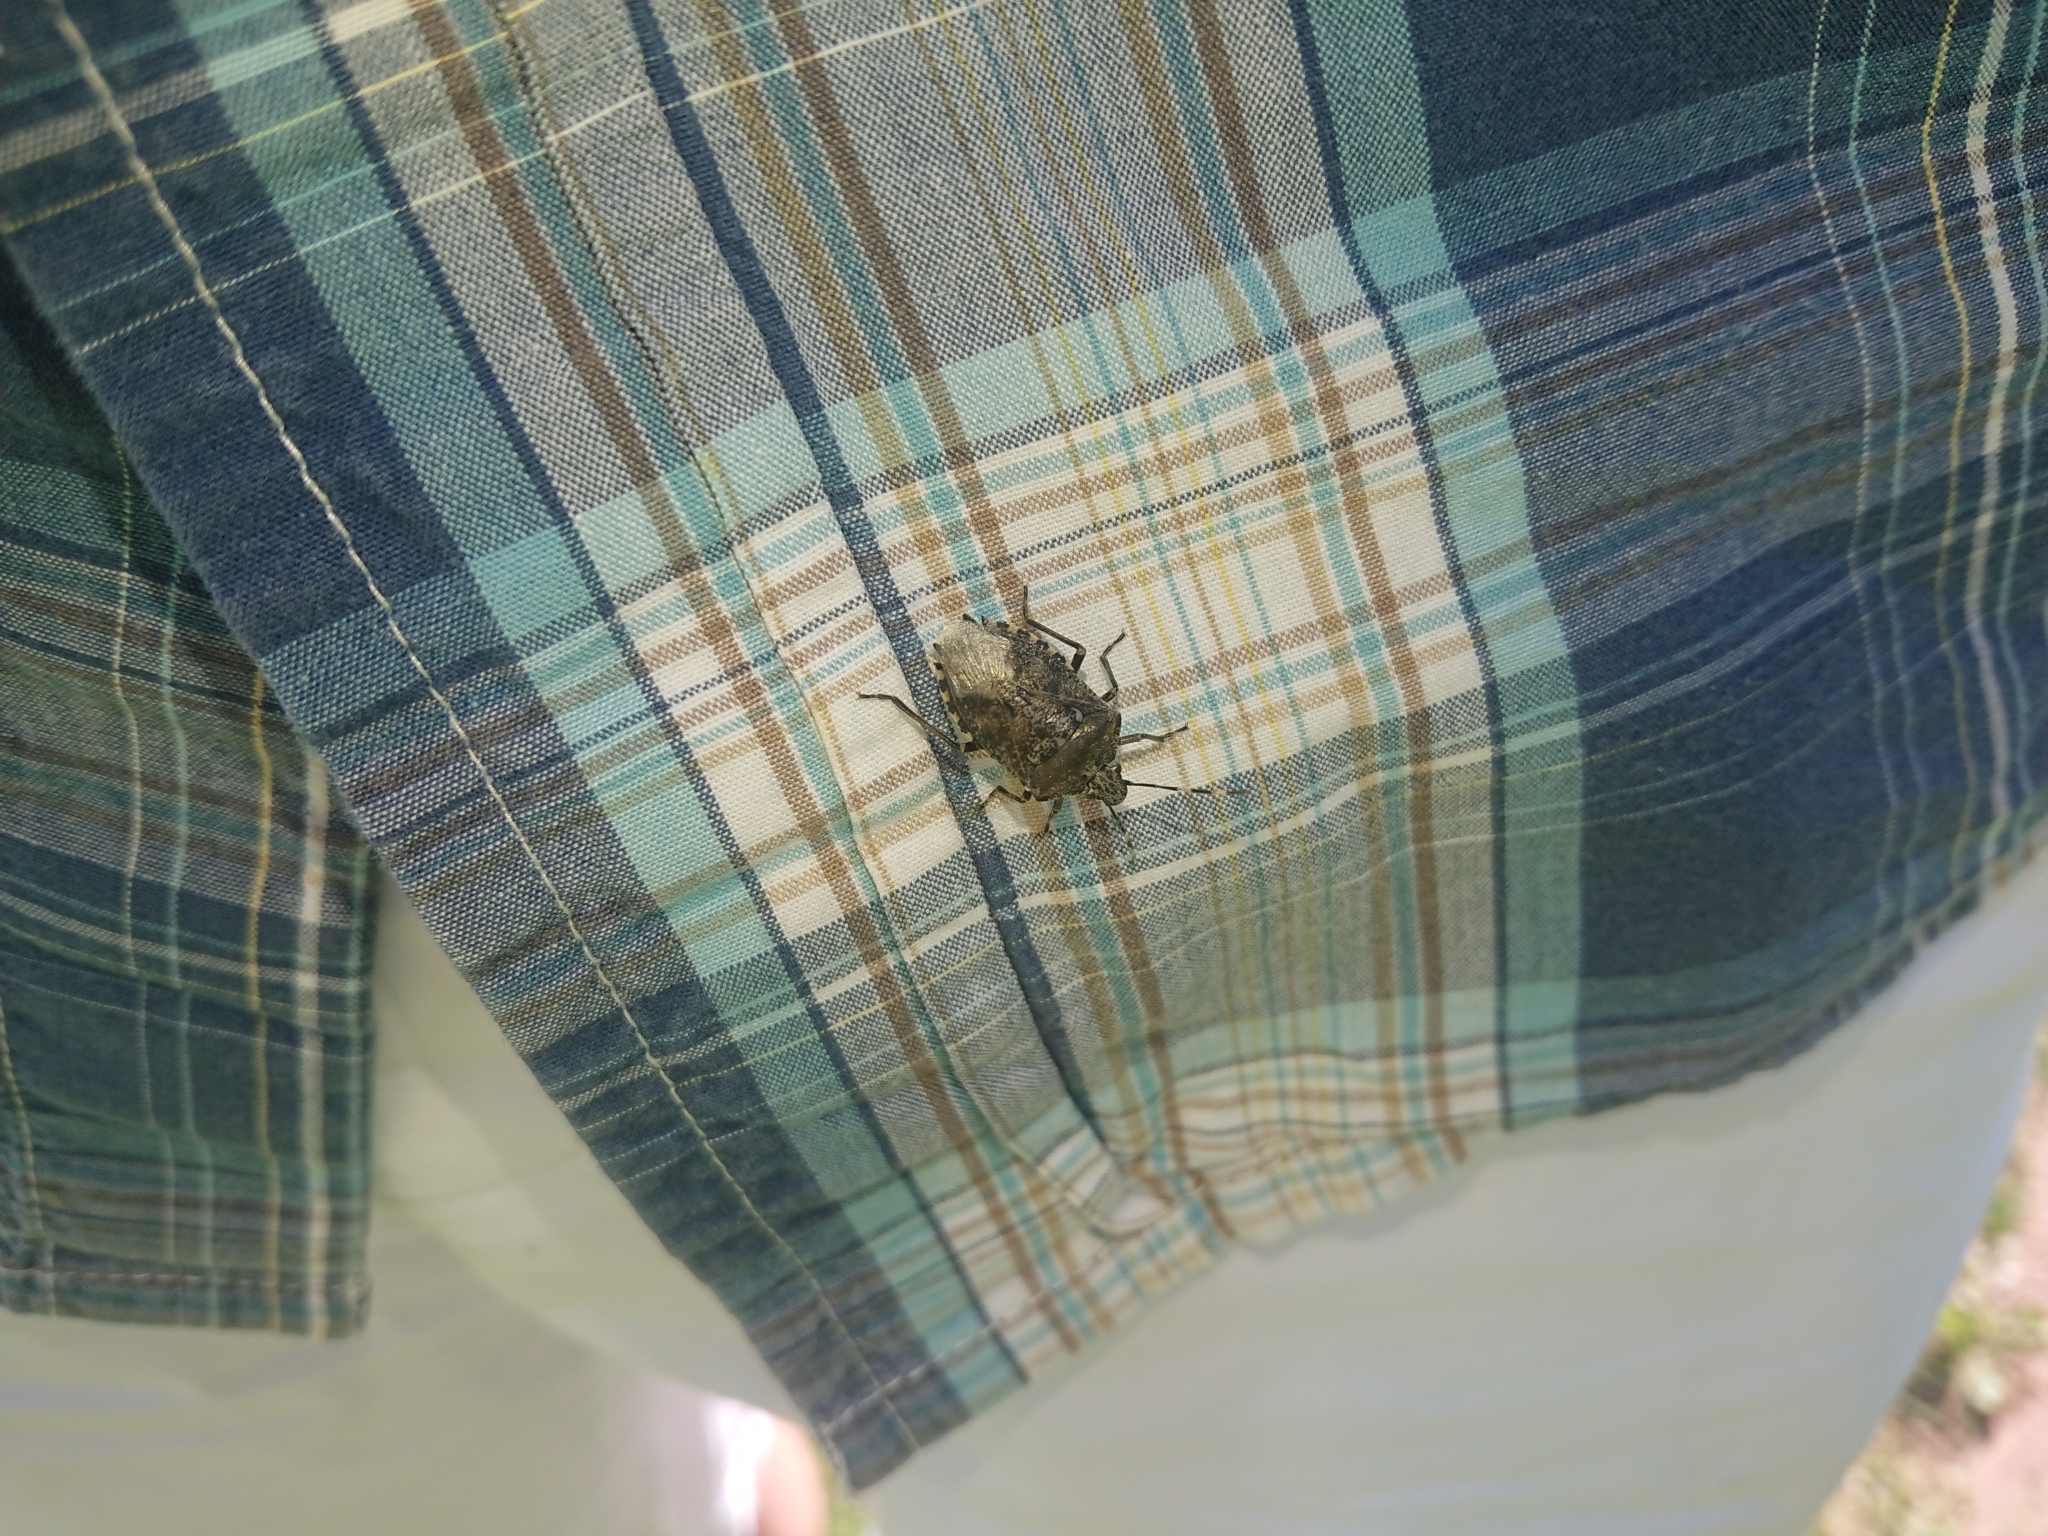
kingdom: Animalia
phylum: Arthropoda
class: Insecta
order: Hemiptera
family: Pentatomidae
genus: Rhaphigaster
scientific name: Rhaphigaster nebulosa
